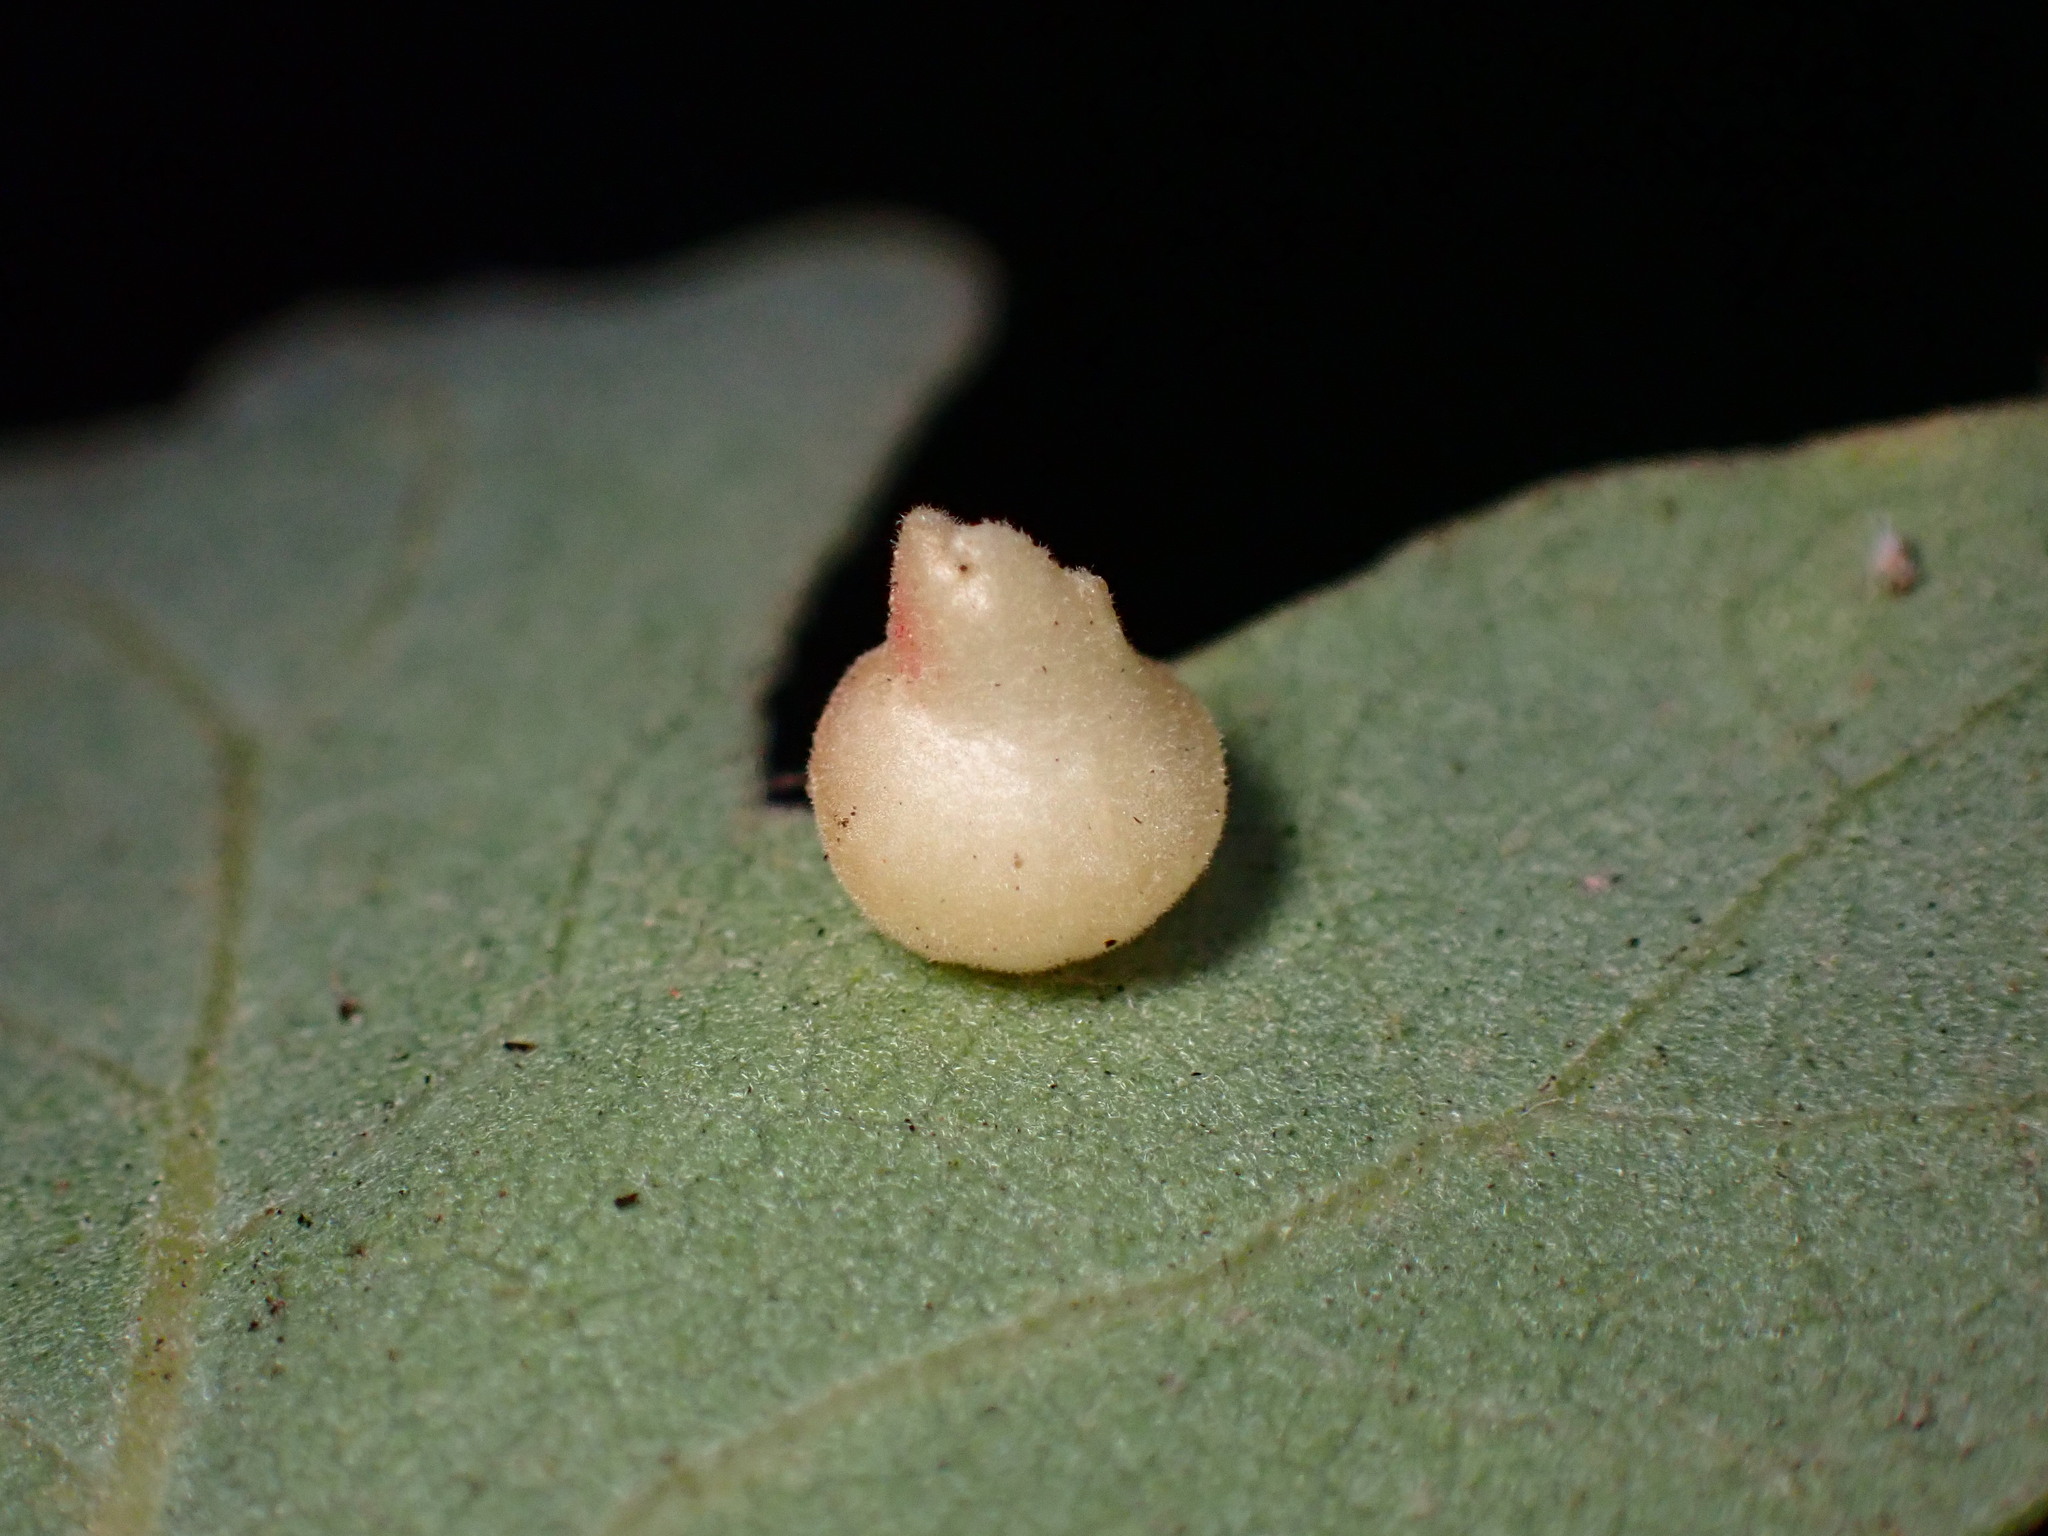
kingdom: Animalia
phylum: Arthropoda
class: Insecta
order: Hymenoptera
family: Cynipidae
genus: Andricus
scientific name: Andricus
